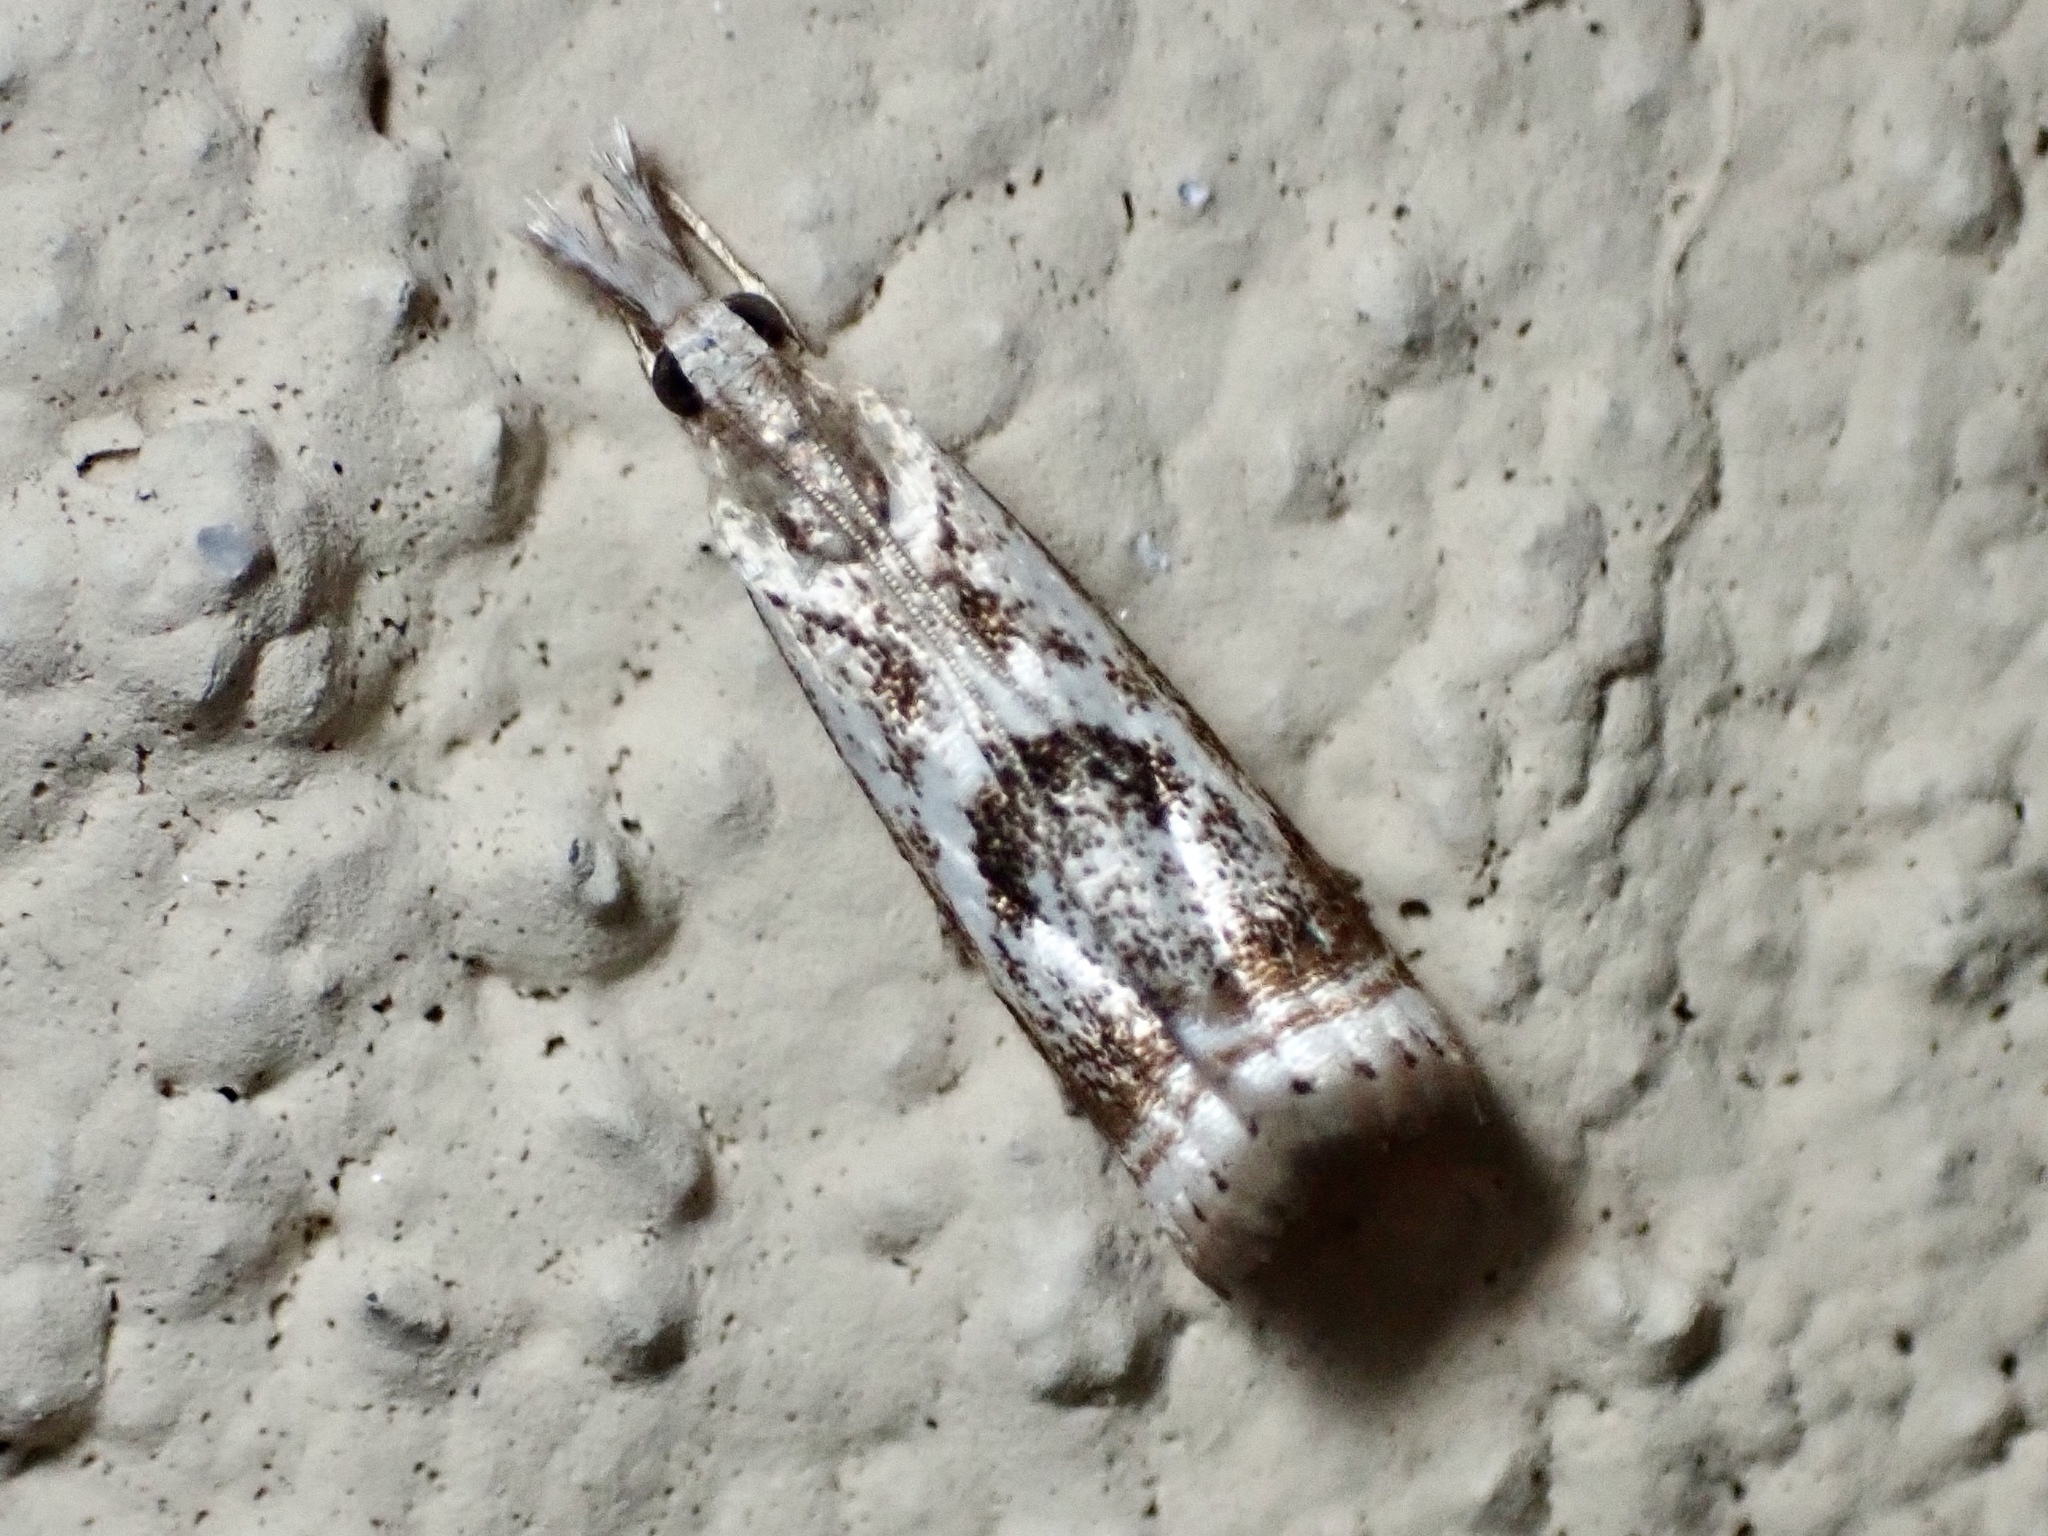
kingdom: Animalia
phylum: Arthropoda
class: Insecta
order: Lepidoptera
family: Crambidae
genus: Microcrambus
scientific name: Microcrambus elegans
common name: Elegant grass-veneer
